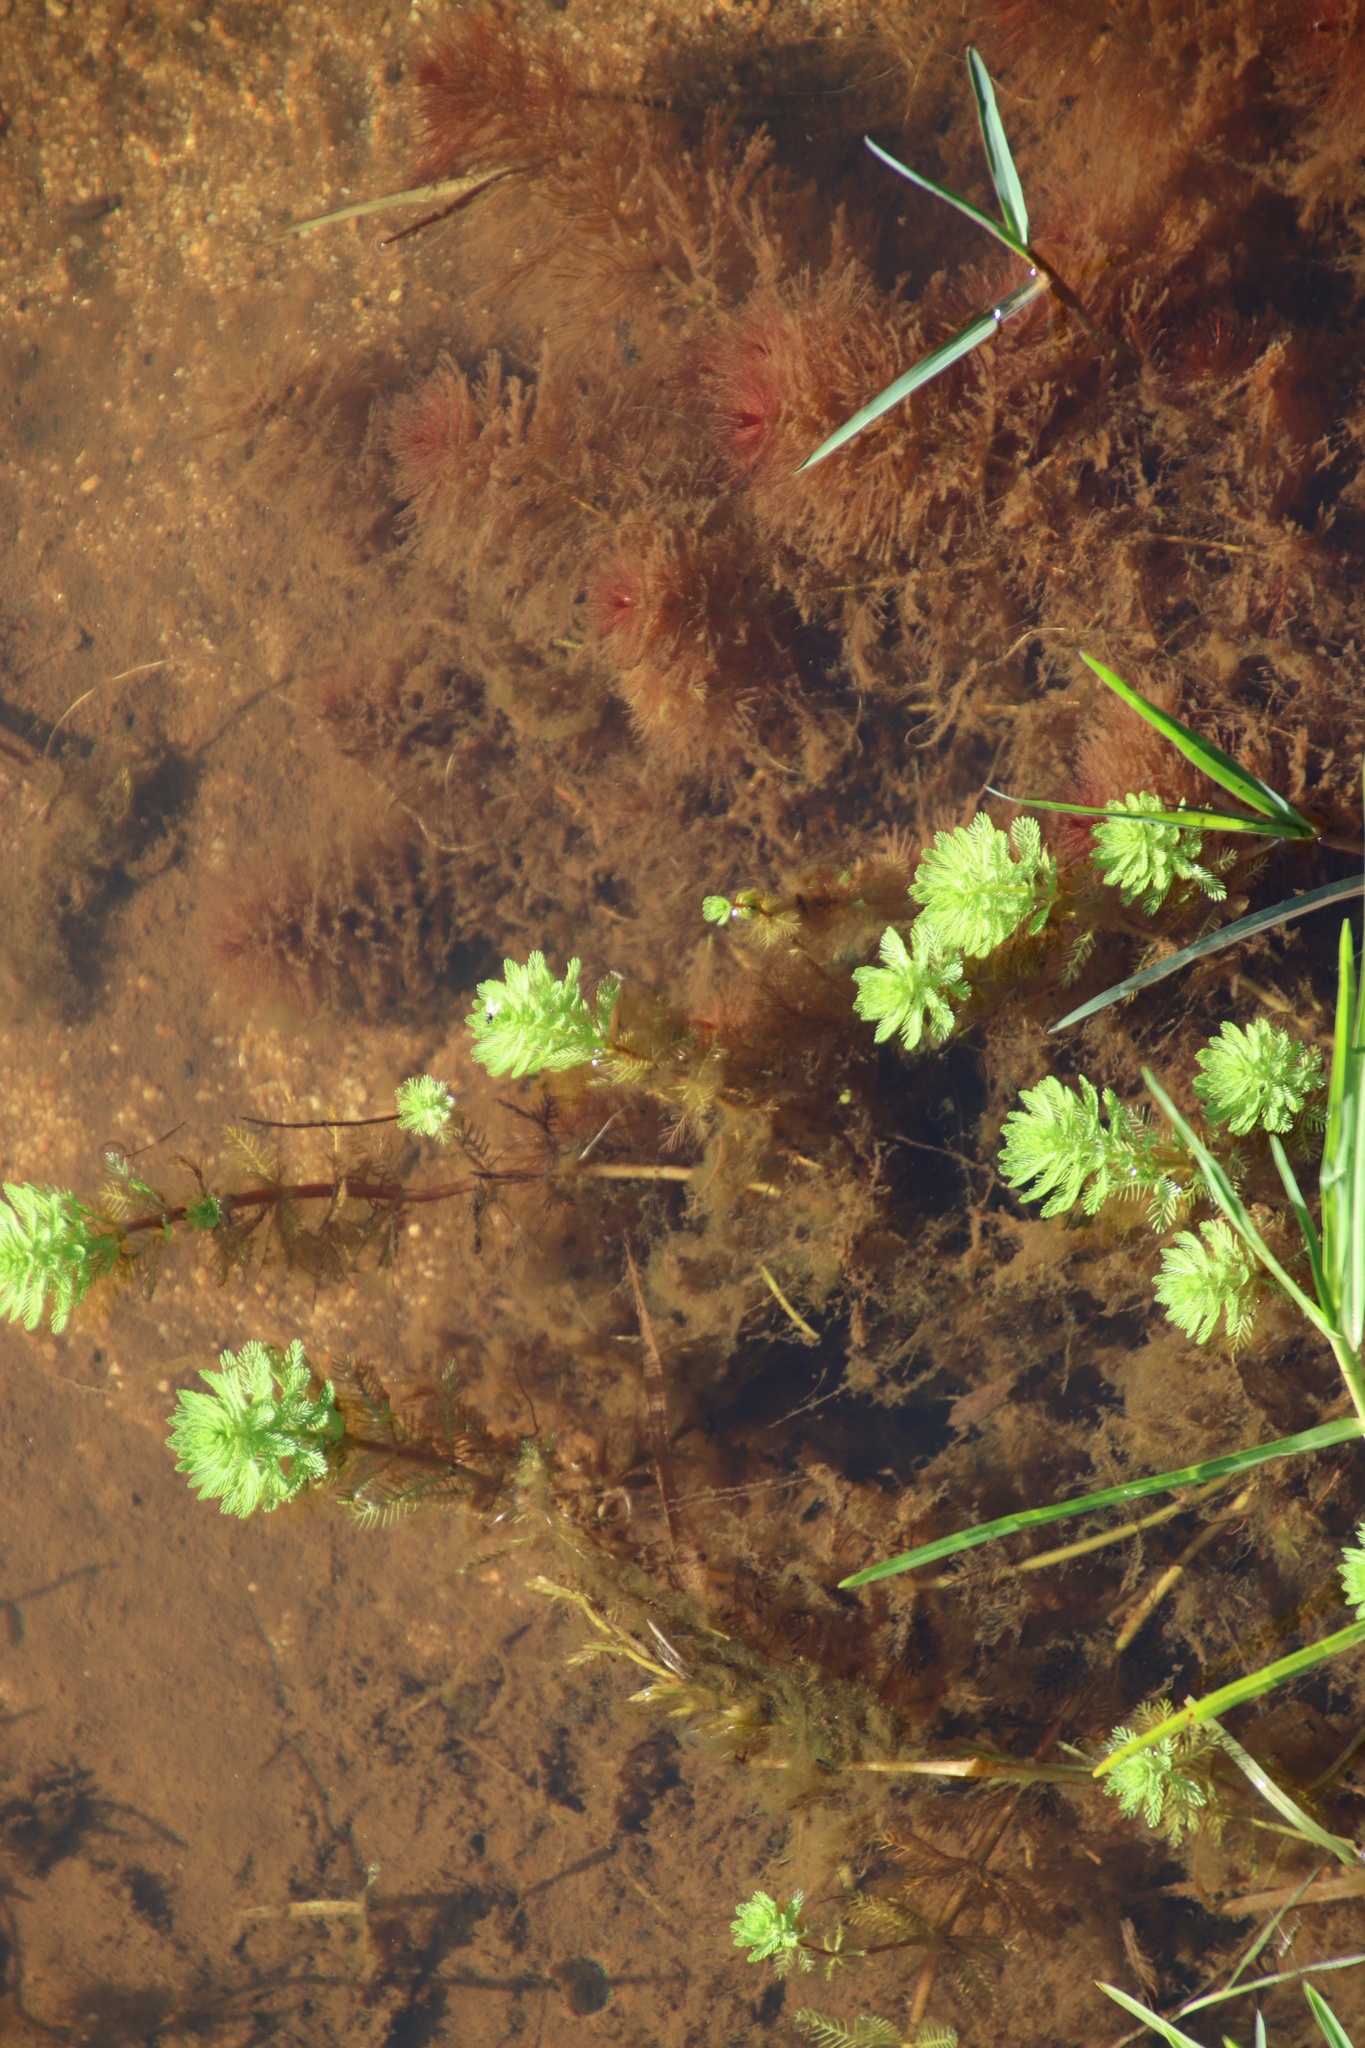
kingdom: Plantae
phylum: Tracheophyta
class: Magnoliopsida
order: Saxifragales
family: Haloragaceae
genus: Myriophyllum
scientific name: Myriophyllum aquaticum
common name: Parrot's feather
